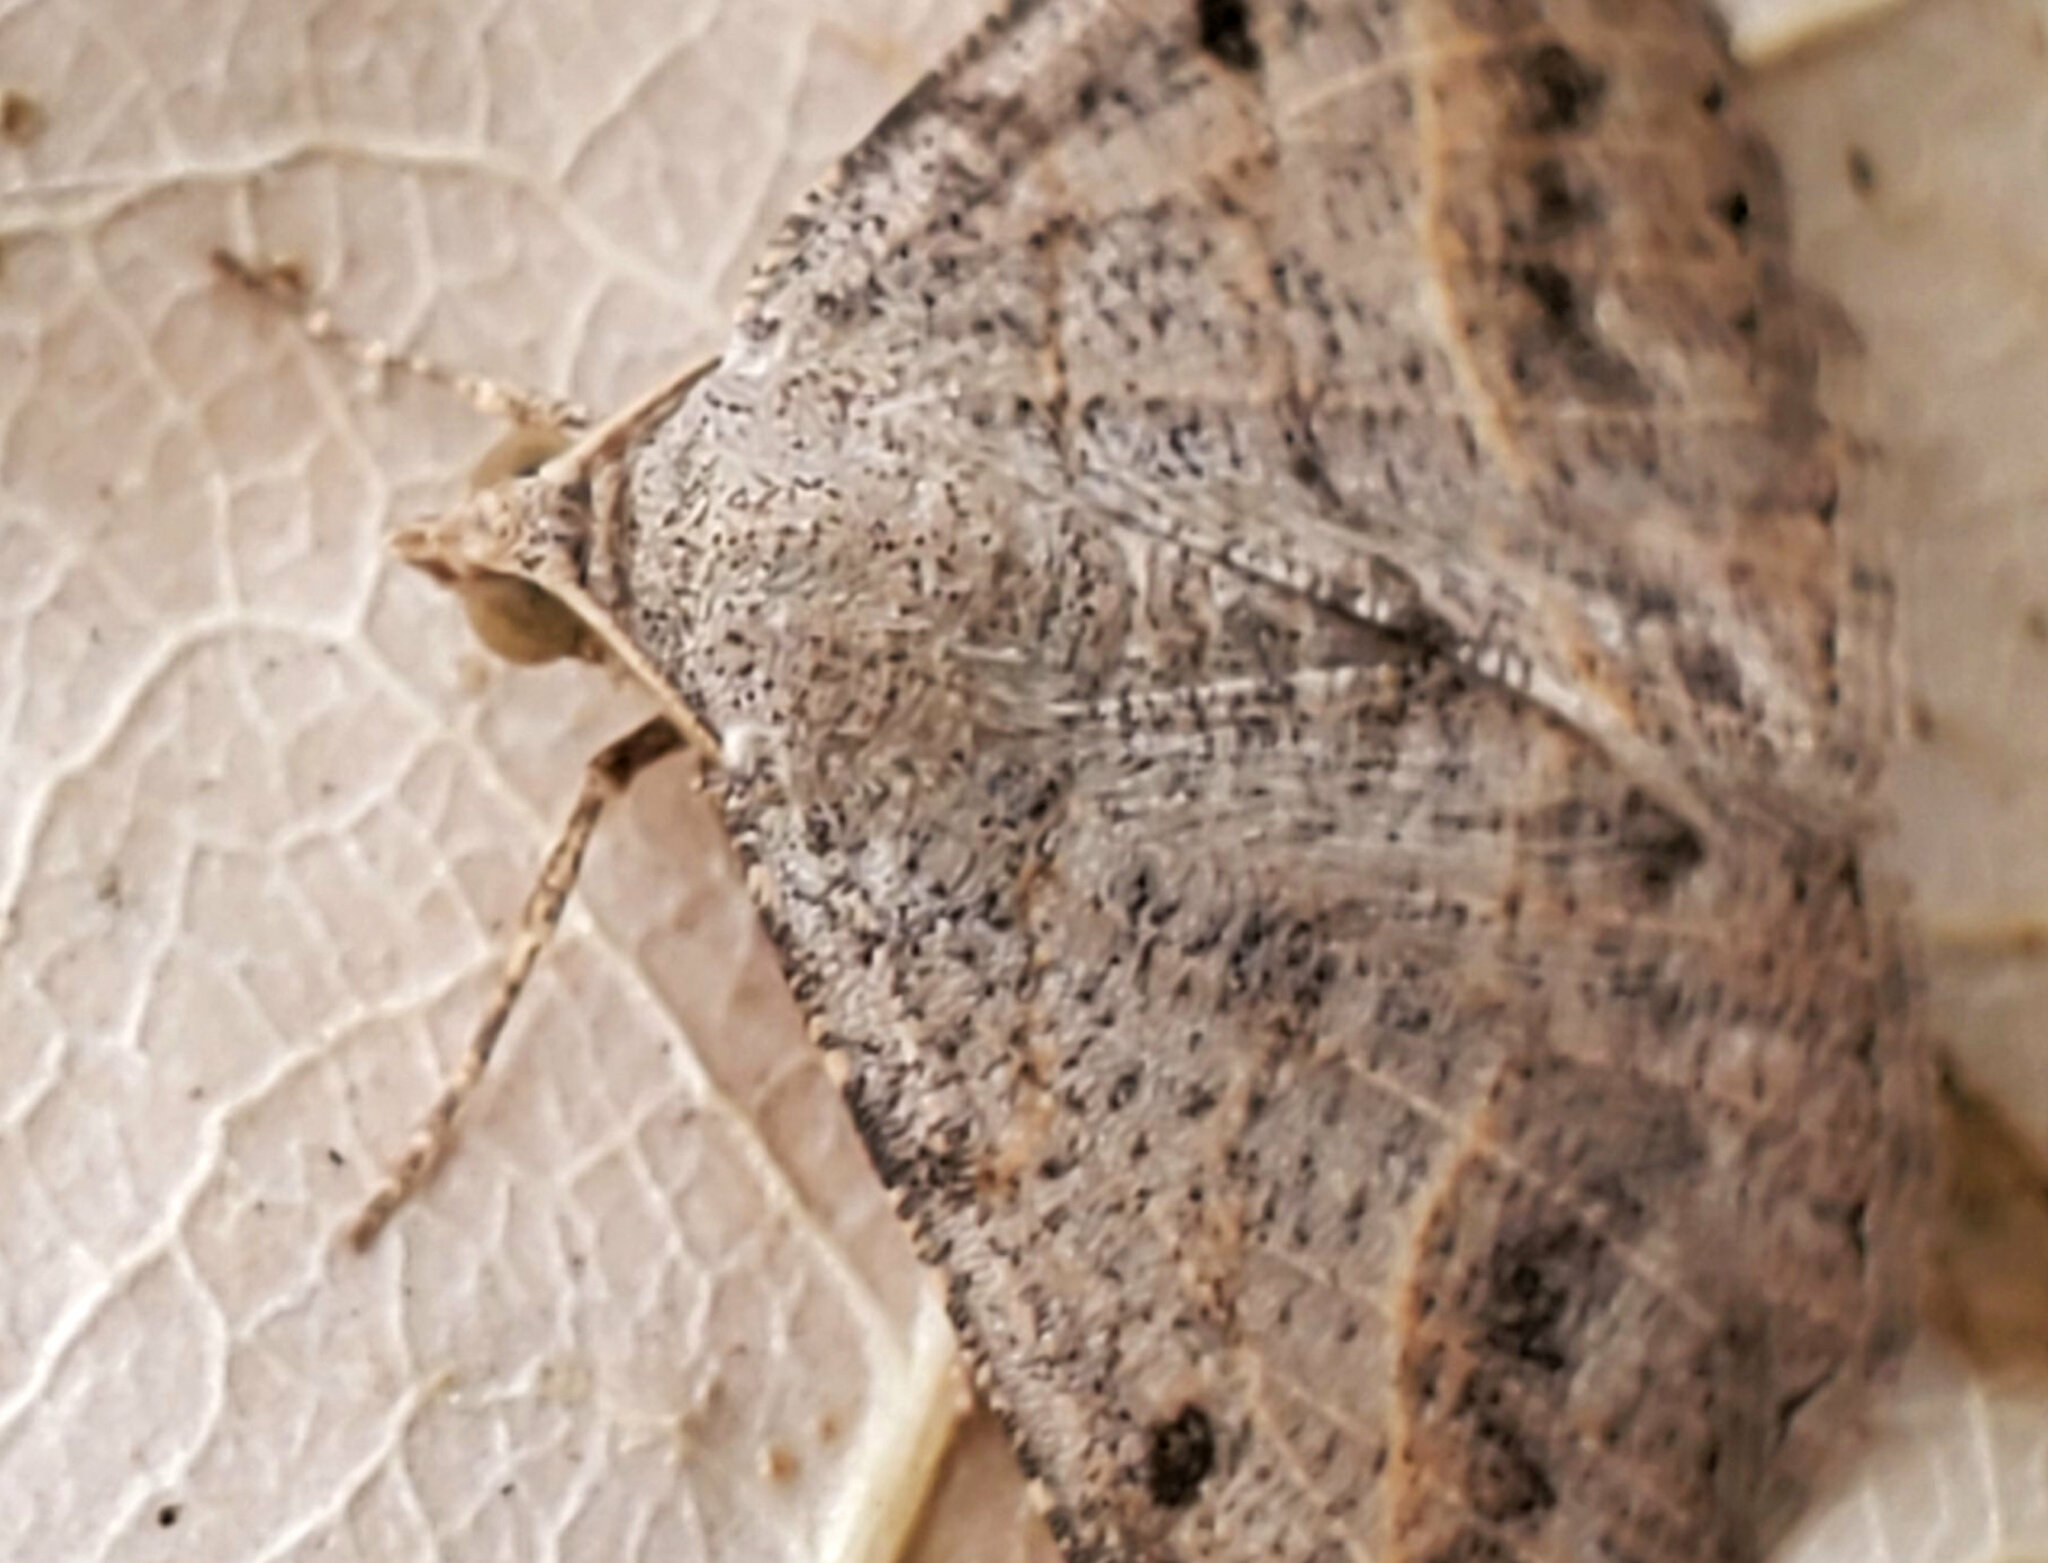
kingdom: Animalia
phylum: Arthropoda
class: Insecta
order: Lepidoptera
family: Geometridae
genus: Digrammia
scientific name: Digrammia irrorata
